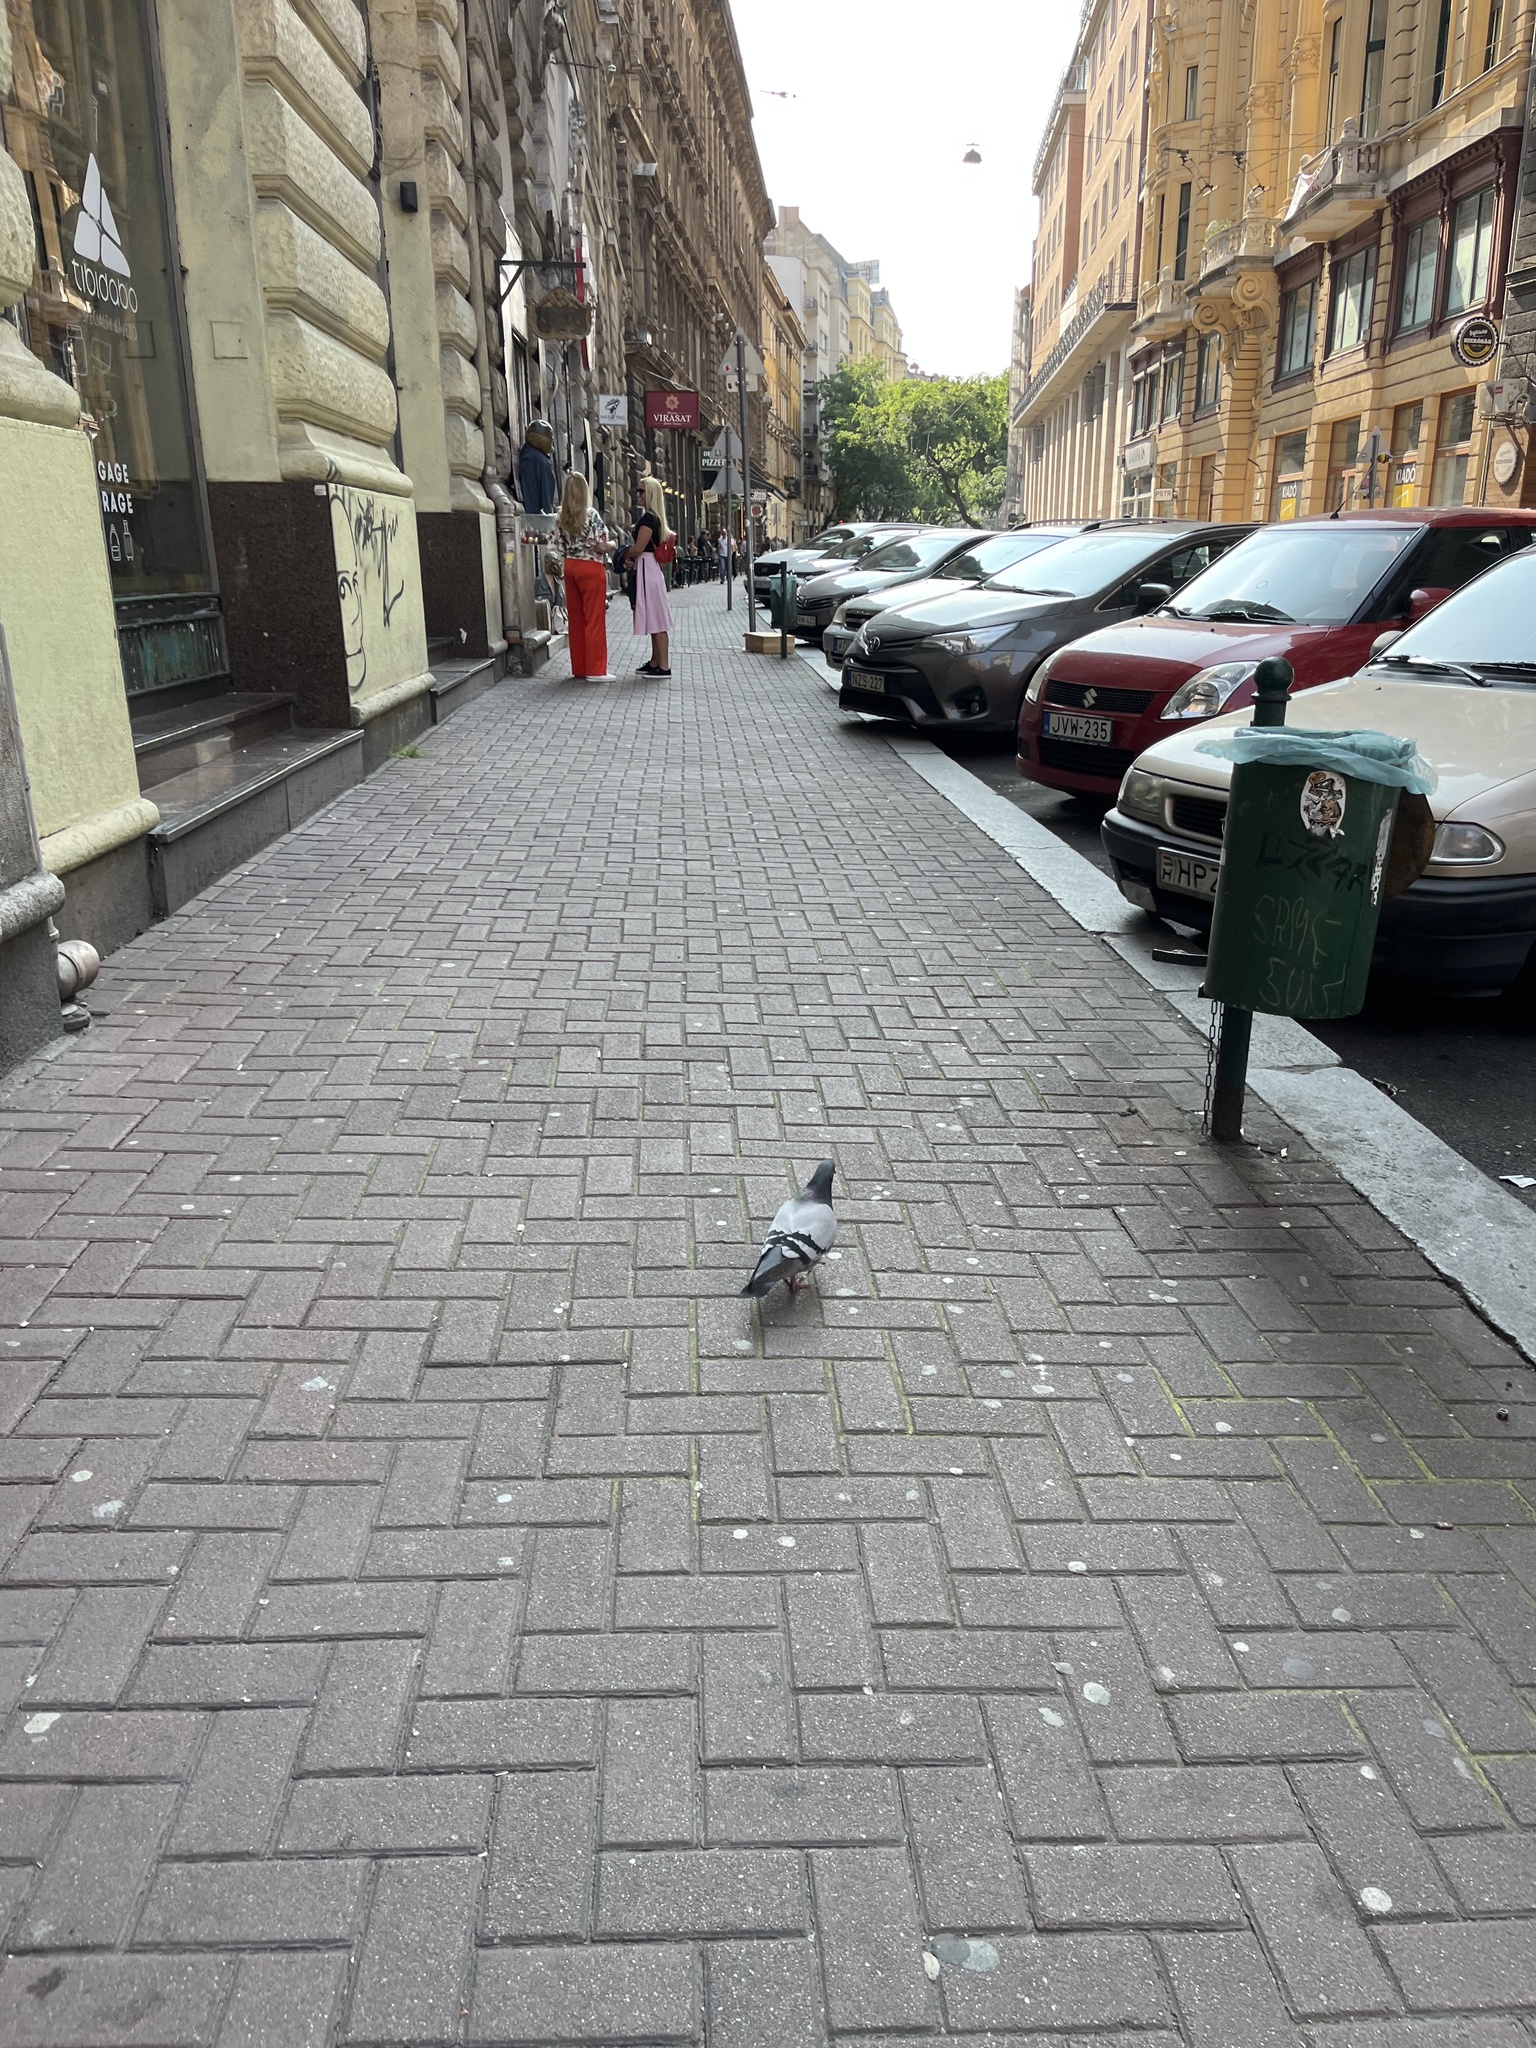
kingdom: Animalia
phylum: Chordata
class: Aves
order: Columbiformes
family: Columbidae
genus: Columba
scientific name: Columba livia
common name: Rock pigeon
